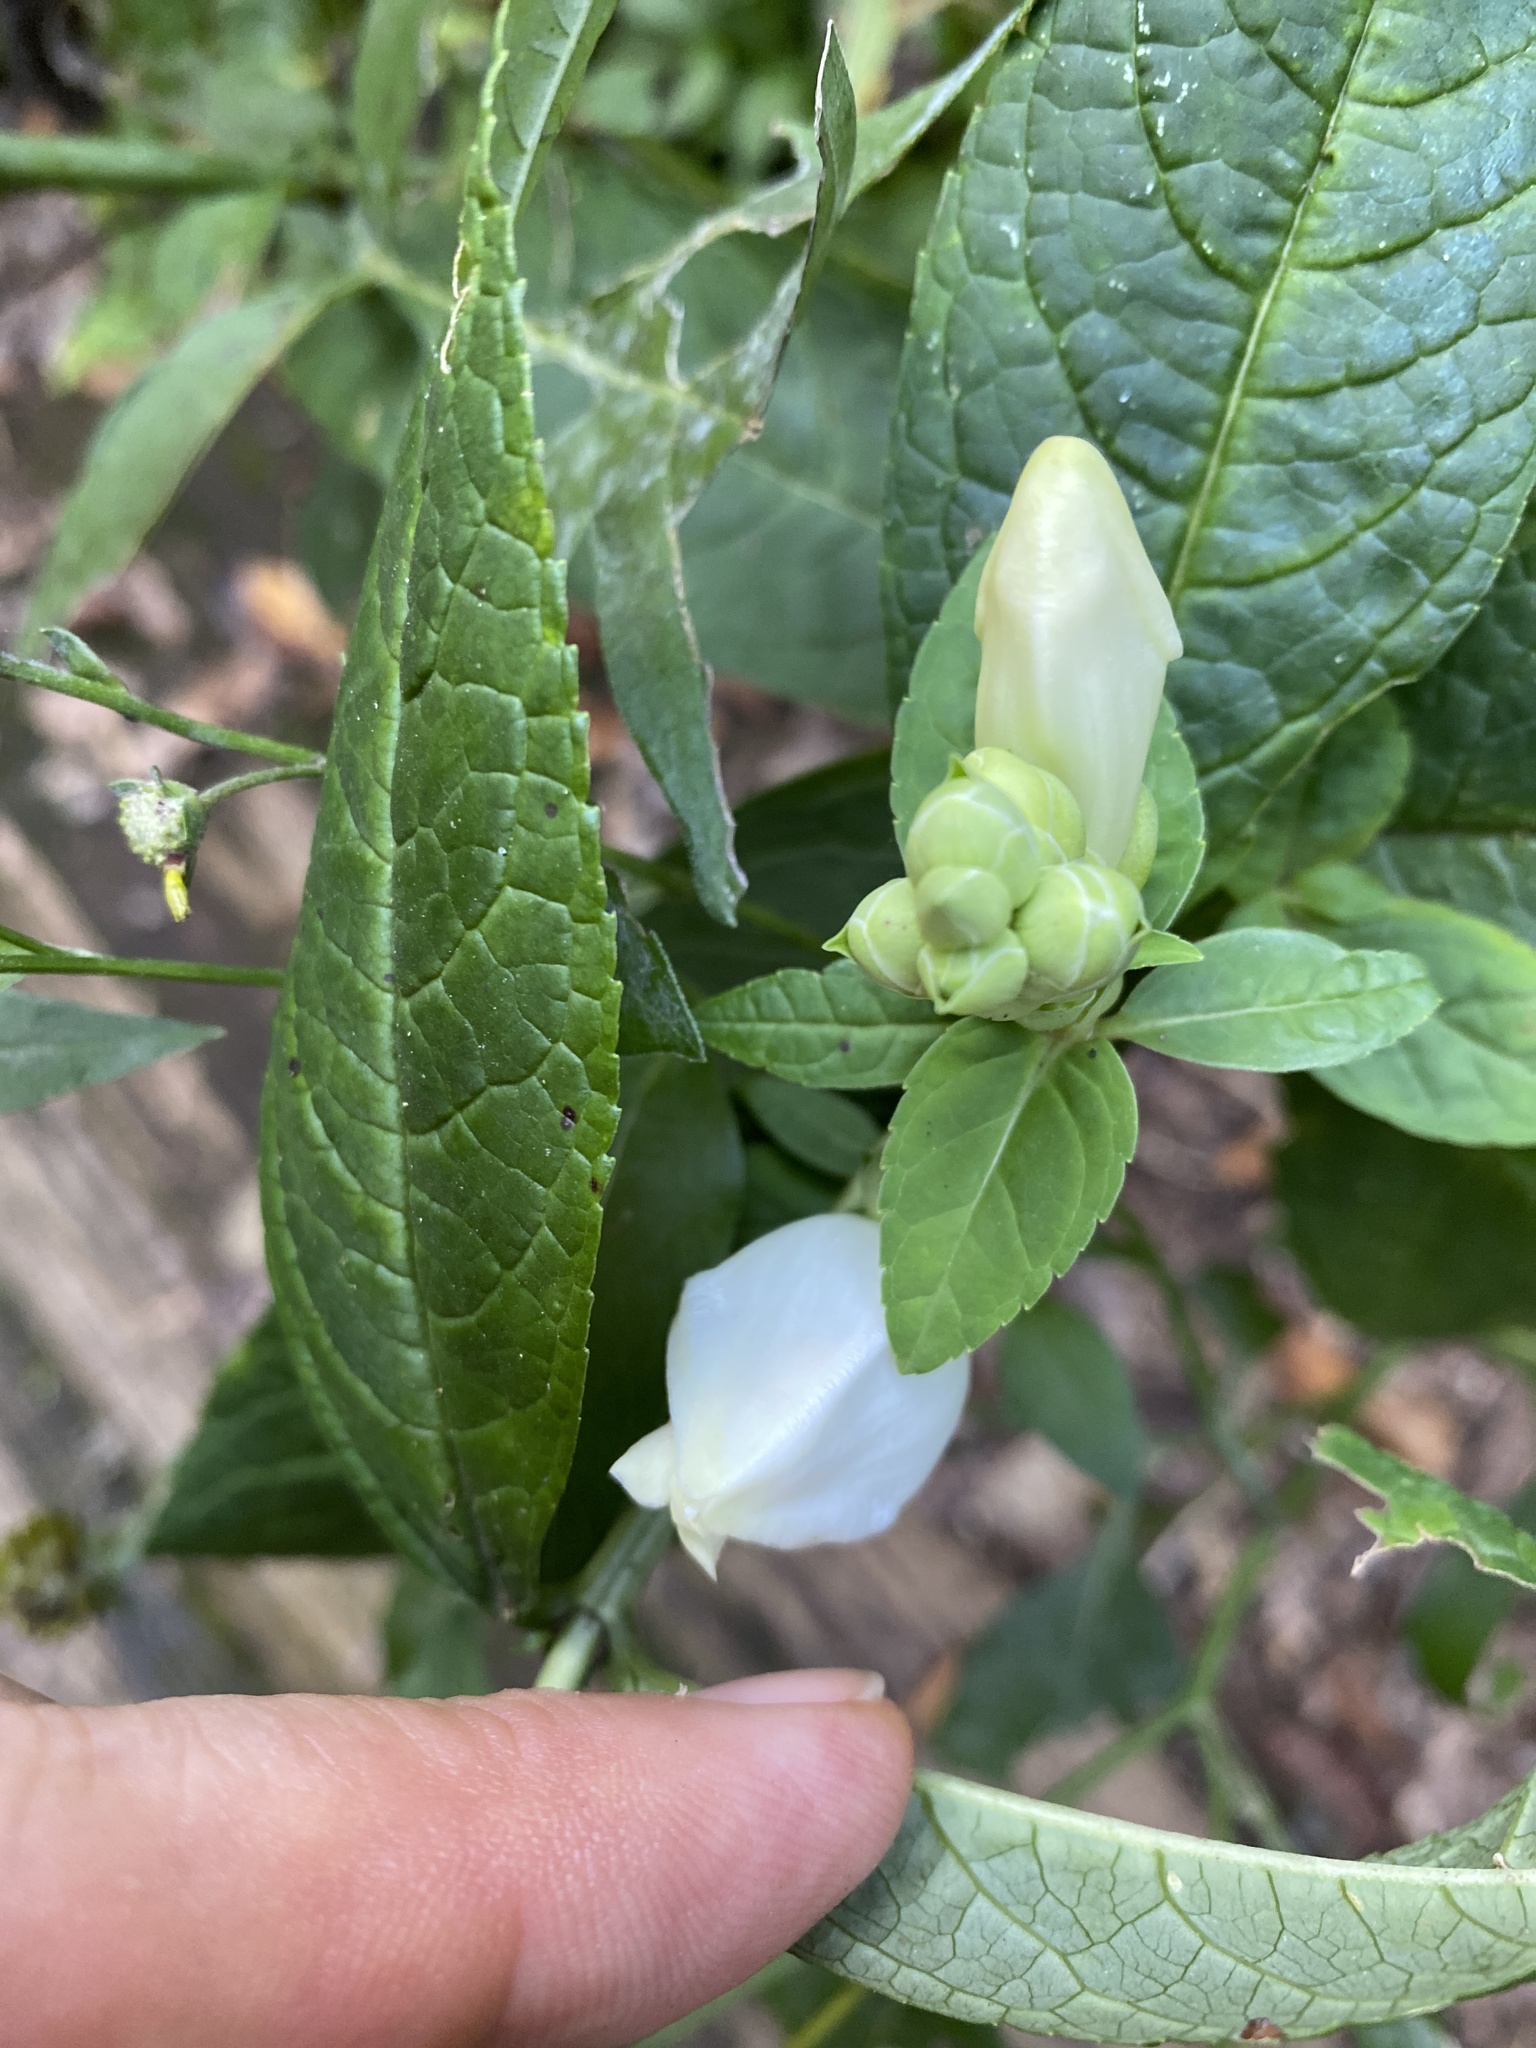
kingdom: Plantae
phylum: Tracheophyta
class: Magnoliopsida
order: Lamiales
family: Plantaginaceae
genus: Chelone
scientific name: Chelone glabra
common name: Snakehead
